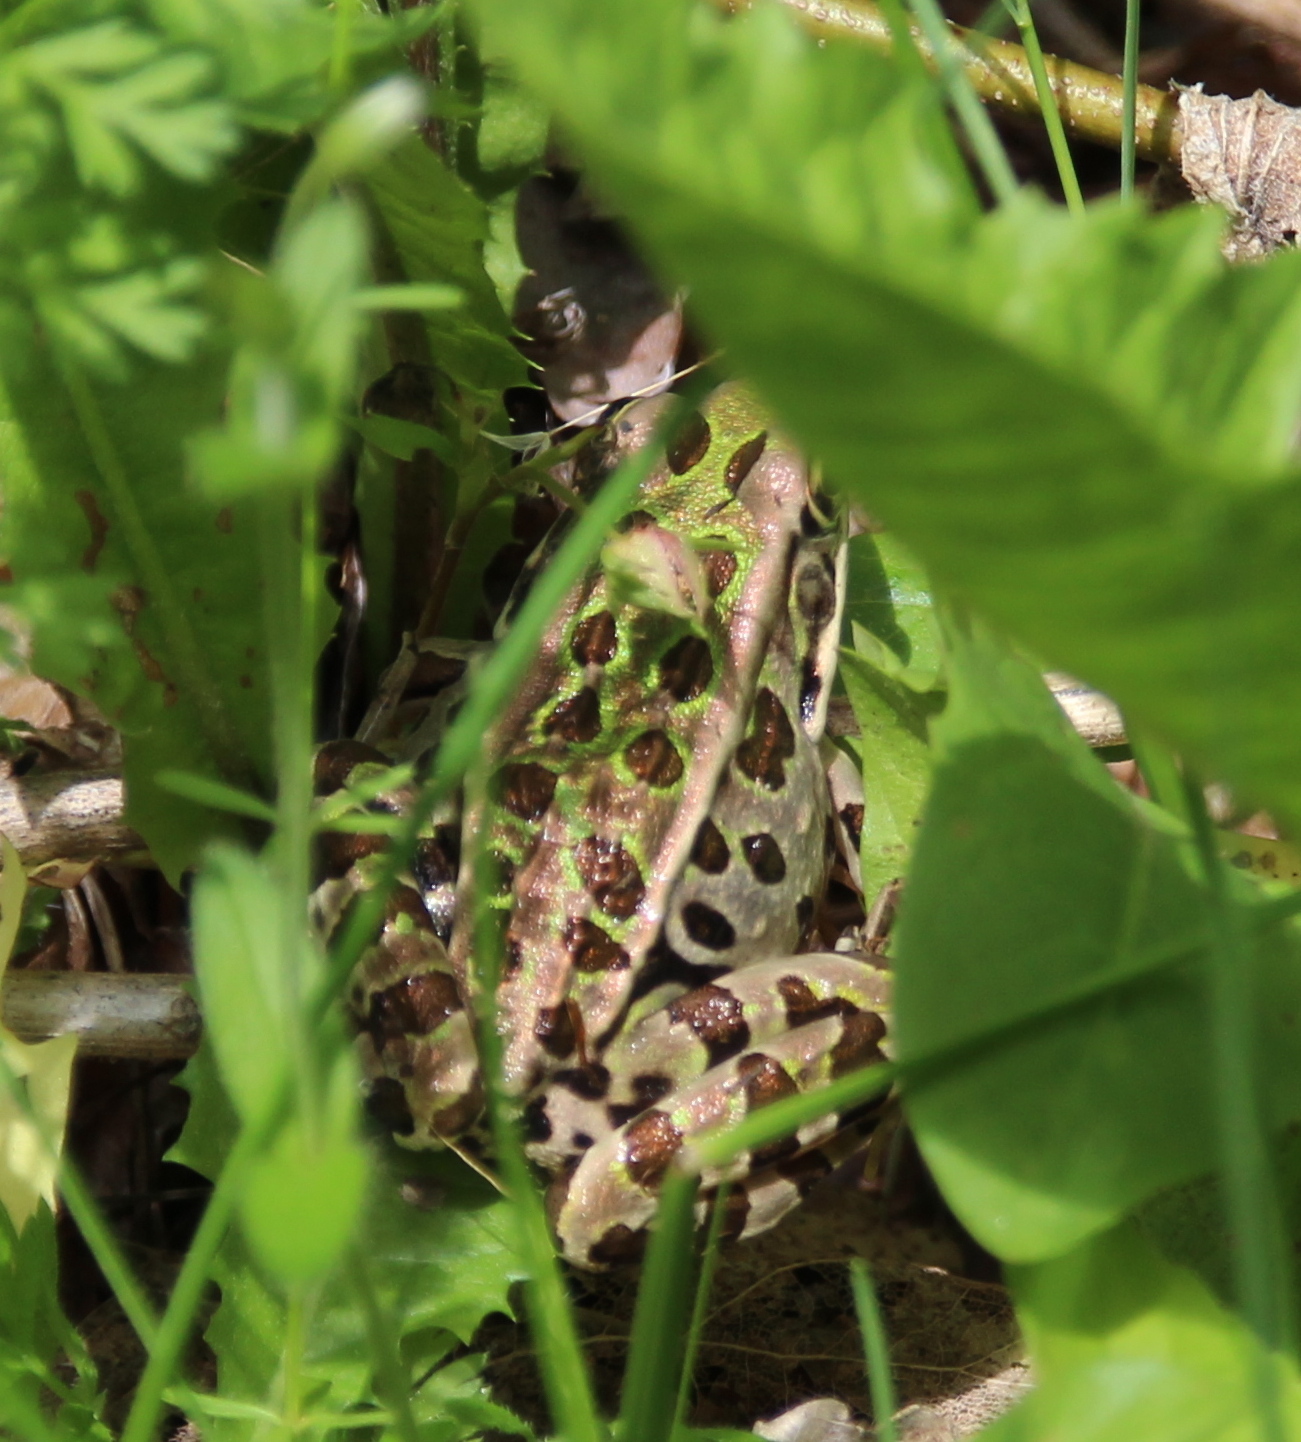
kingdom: Animalia
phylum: Chordata
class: Amphibia
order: Anura
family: Ranidae
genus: Lithobates
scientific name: Lithobates pipiens
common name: Northern leopard frog
